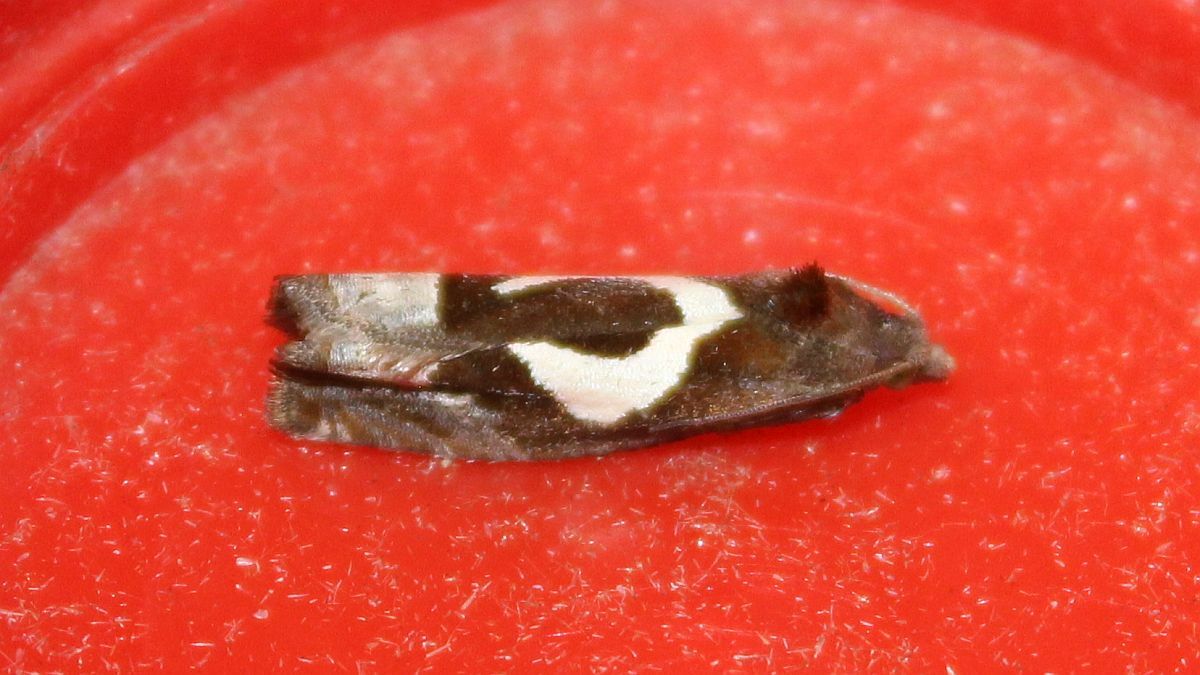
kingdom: Animalia
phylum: Arthropoda
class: Insecta
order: Lepidoptera
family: Tortricidae
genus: Epiblema
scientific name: Epiblema foenella
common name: White-foot bell
